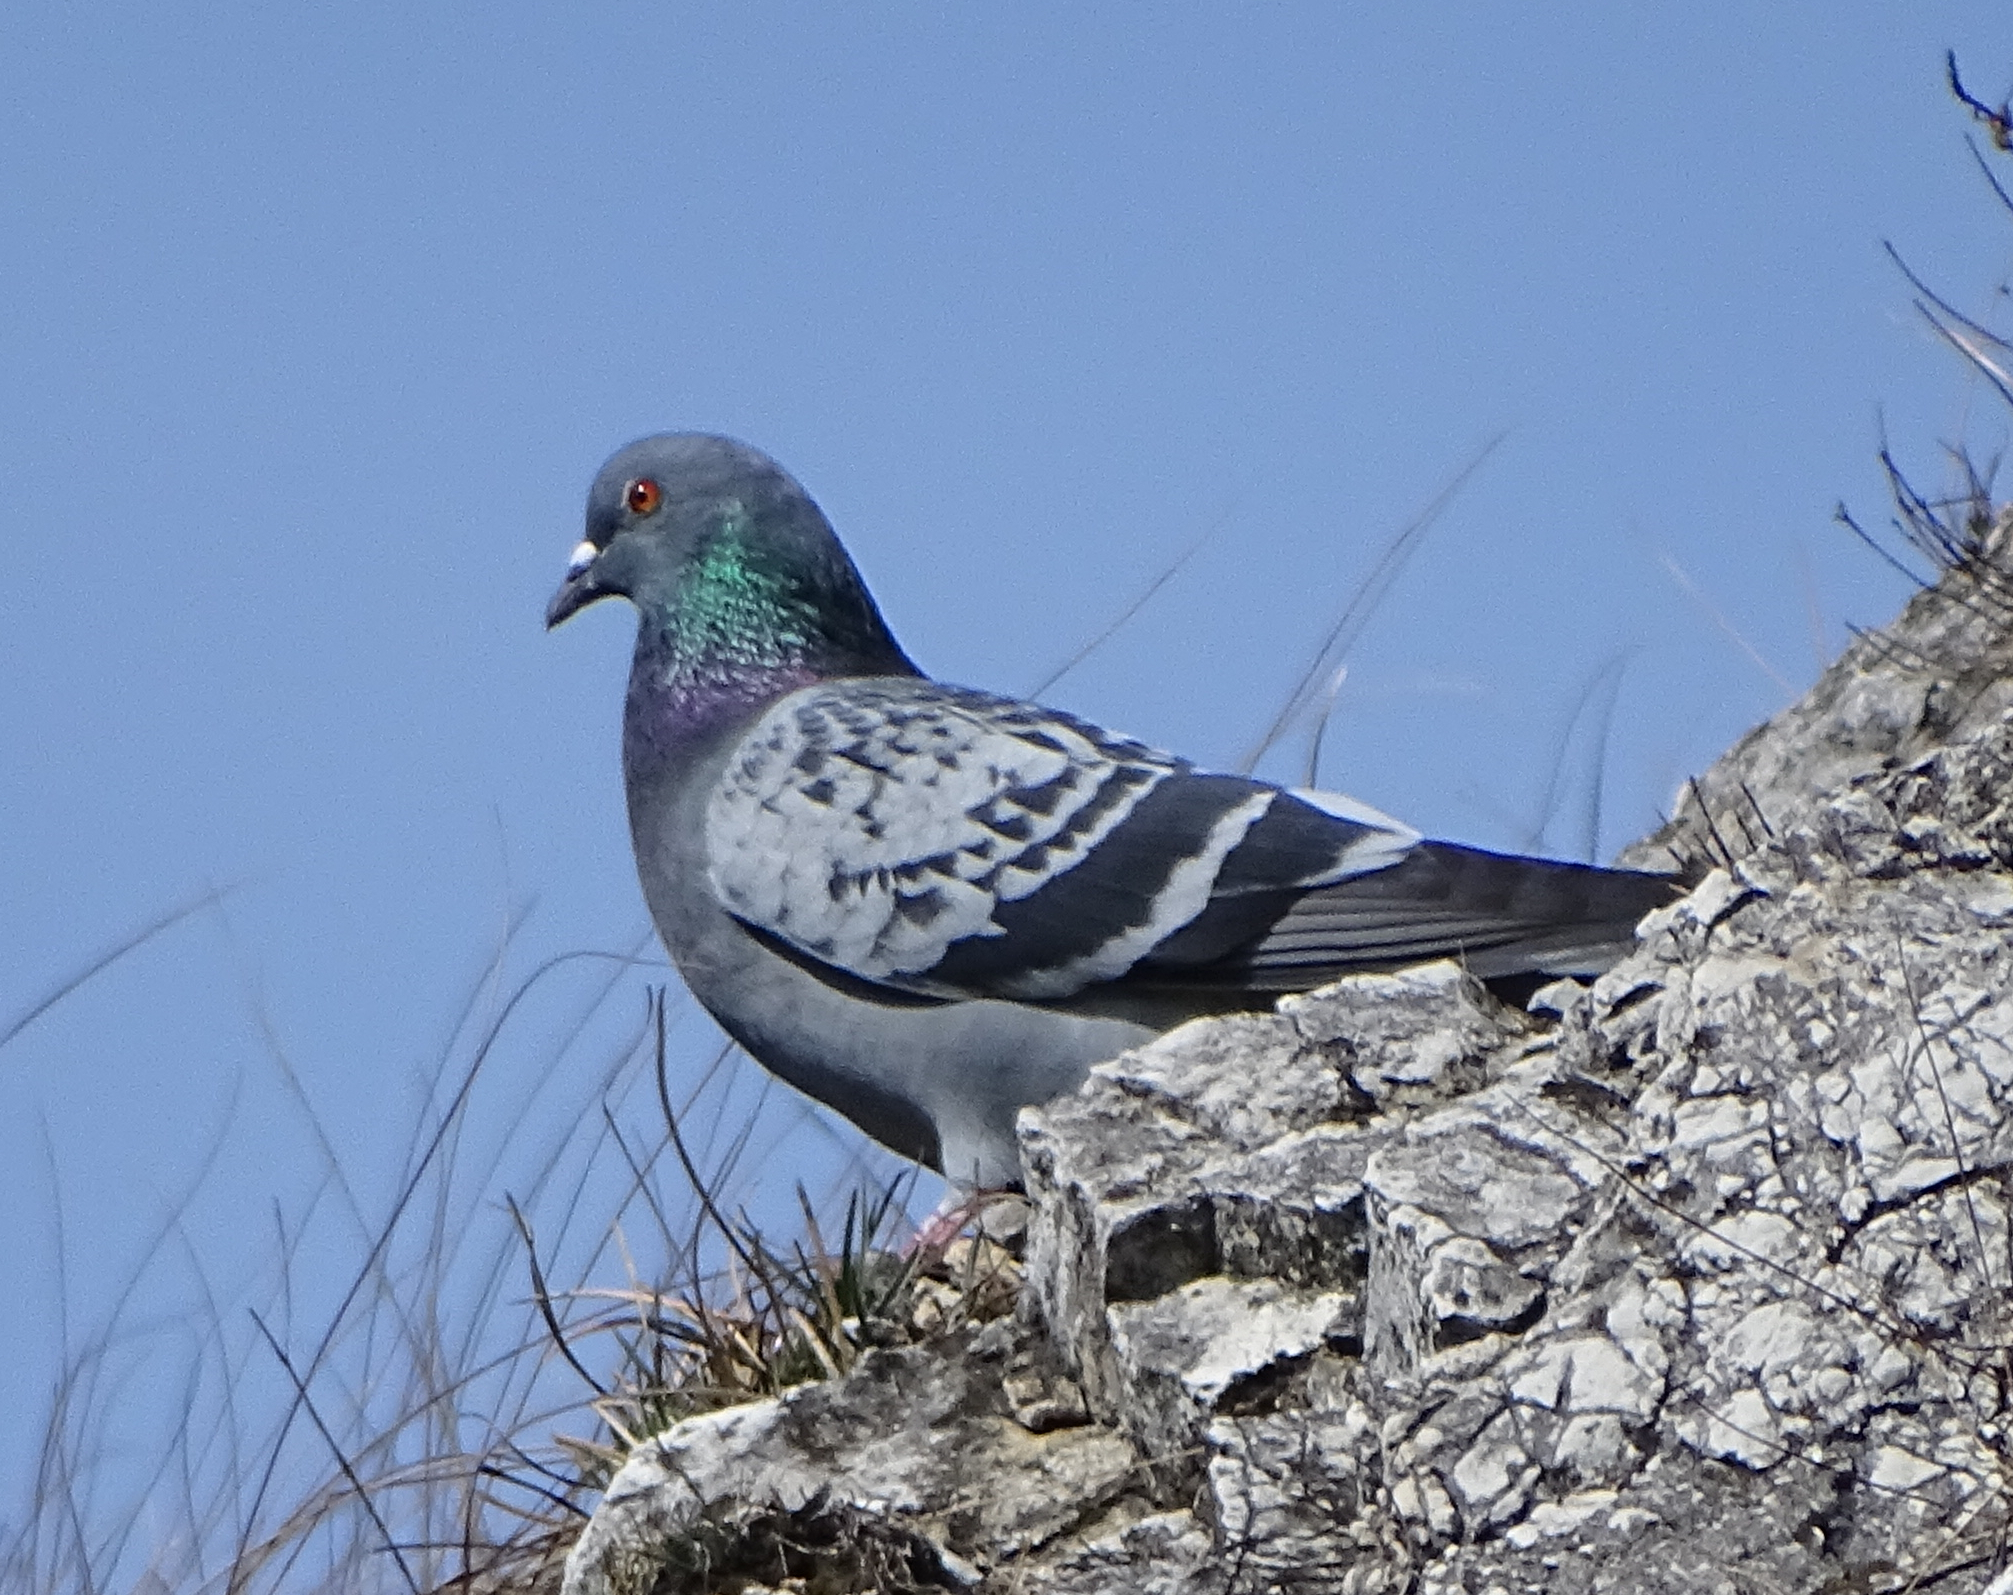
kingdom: Animalia
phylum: Chordata
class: Aves
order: Columbiformes
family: Columbidae
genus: Columba
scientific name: Columba livia
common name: Rock pigeon
